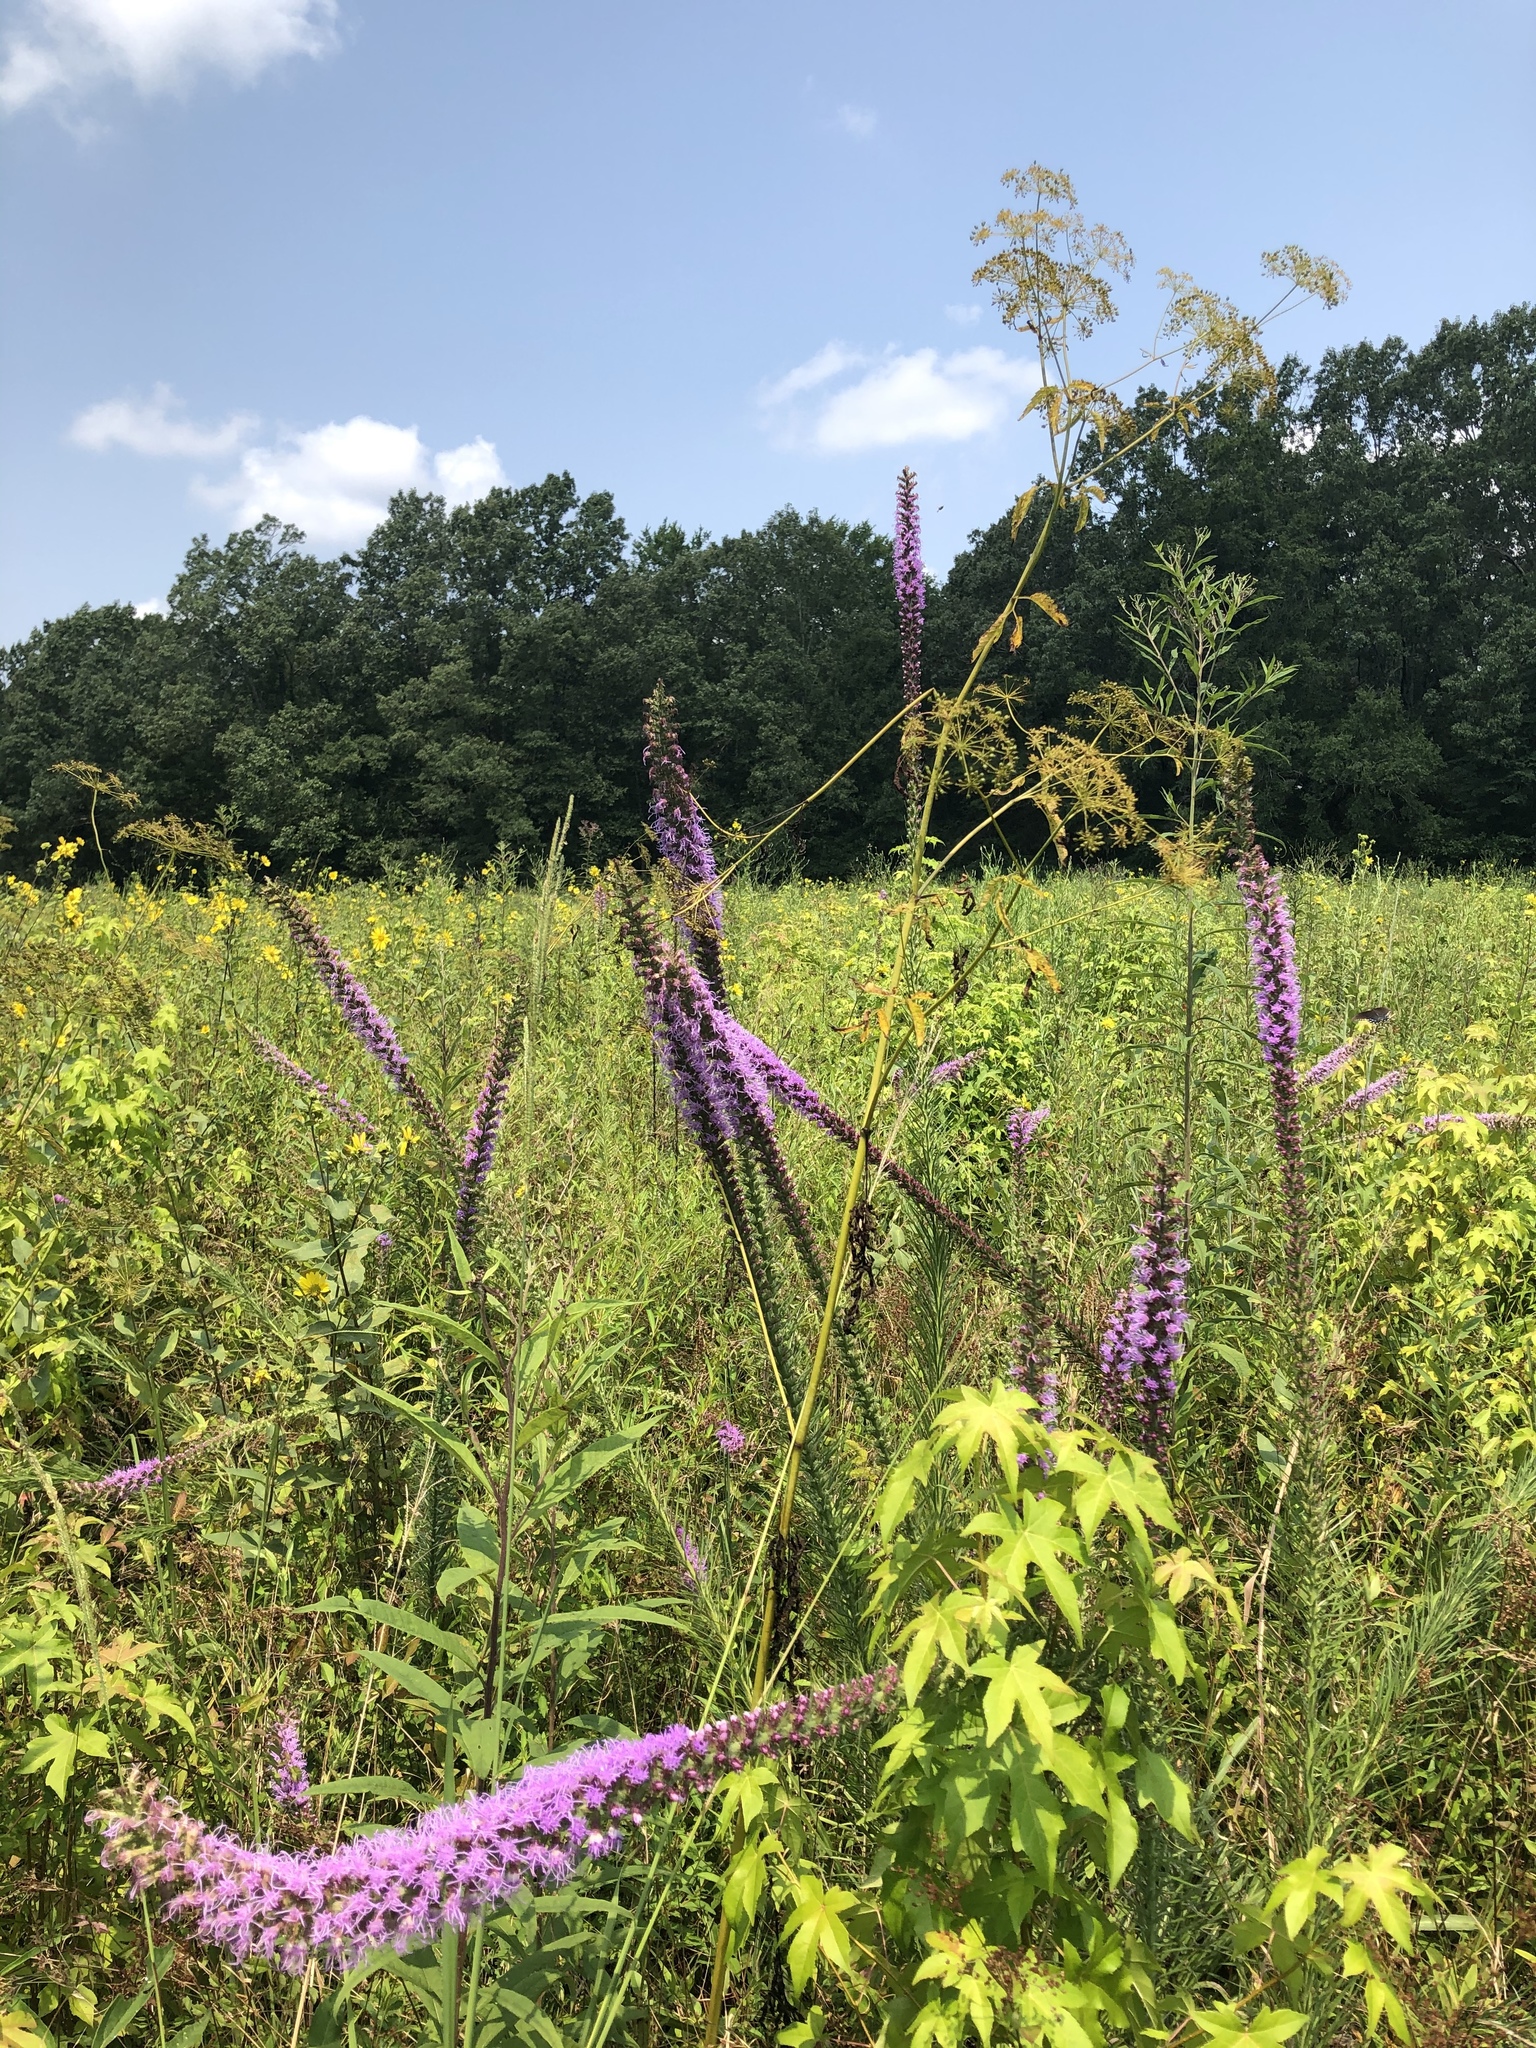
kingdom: Plantae
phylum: Tracheophyta
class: Magnoliopsida
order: Asterales
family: Asteraceae
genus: Liatris
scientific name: Liatris pycnostachya
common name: Cattail gayfeather
